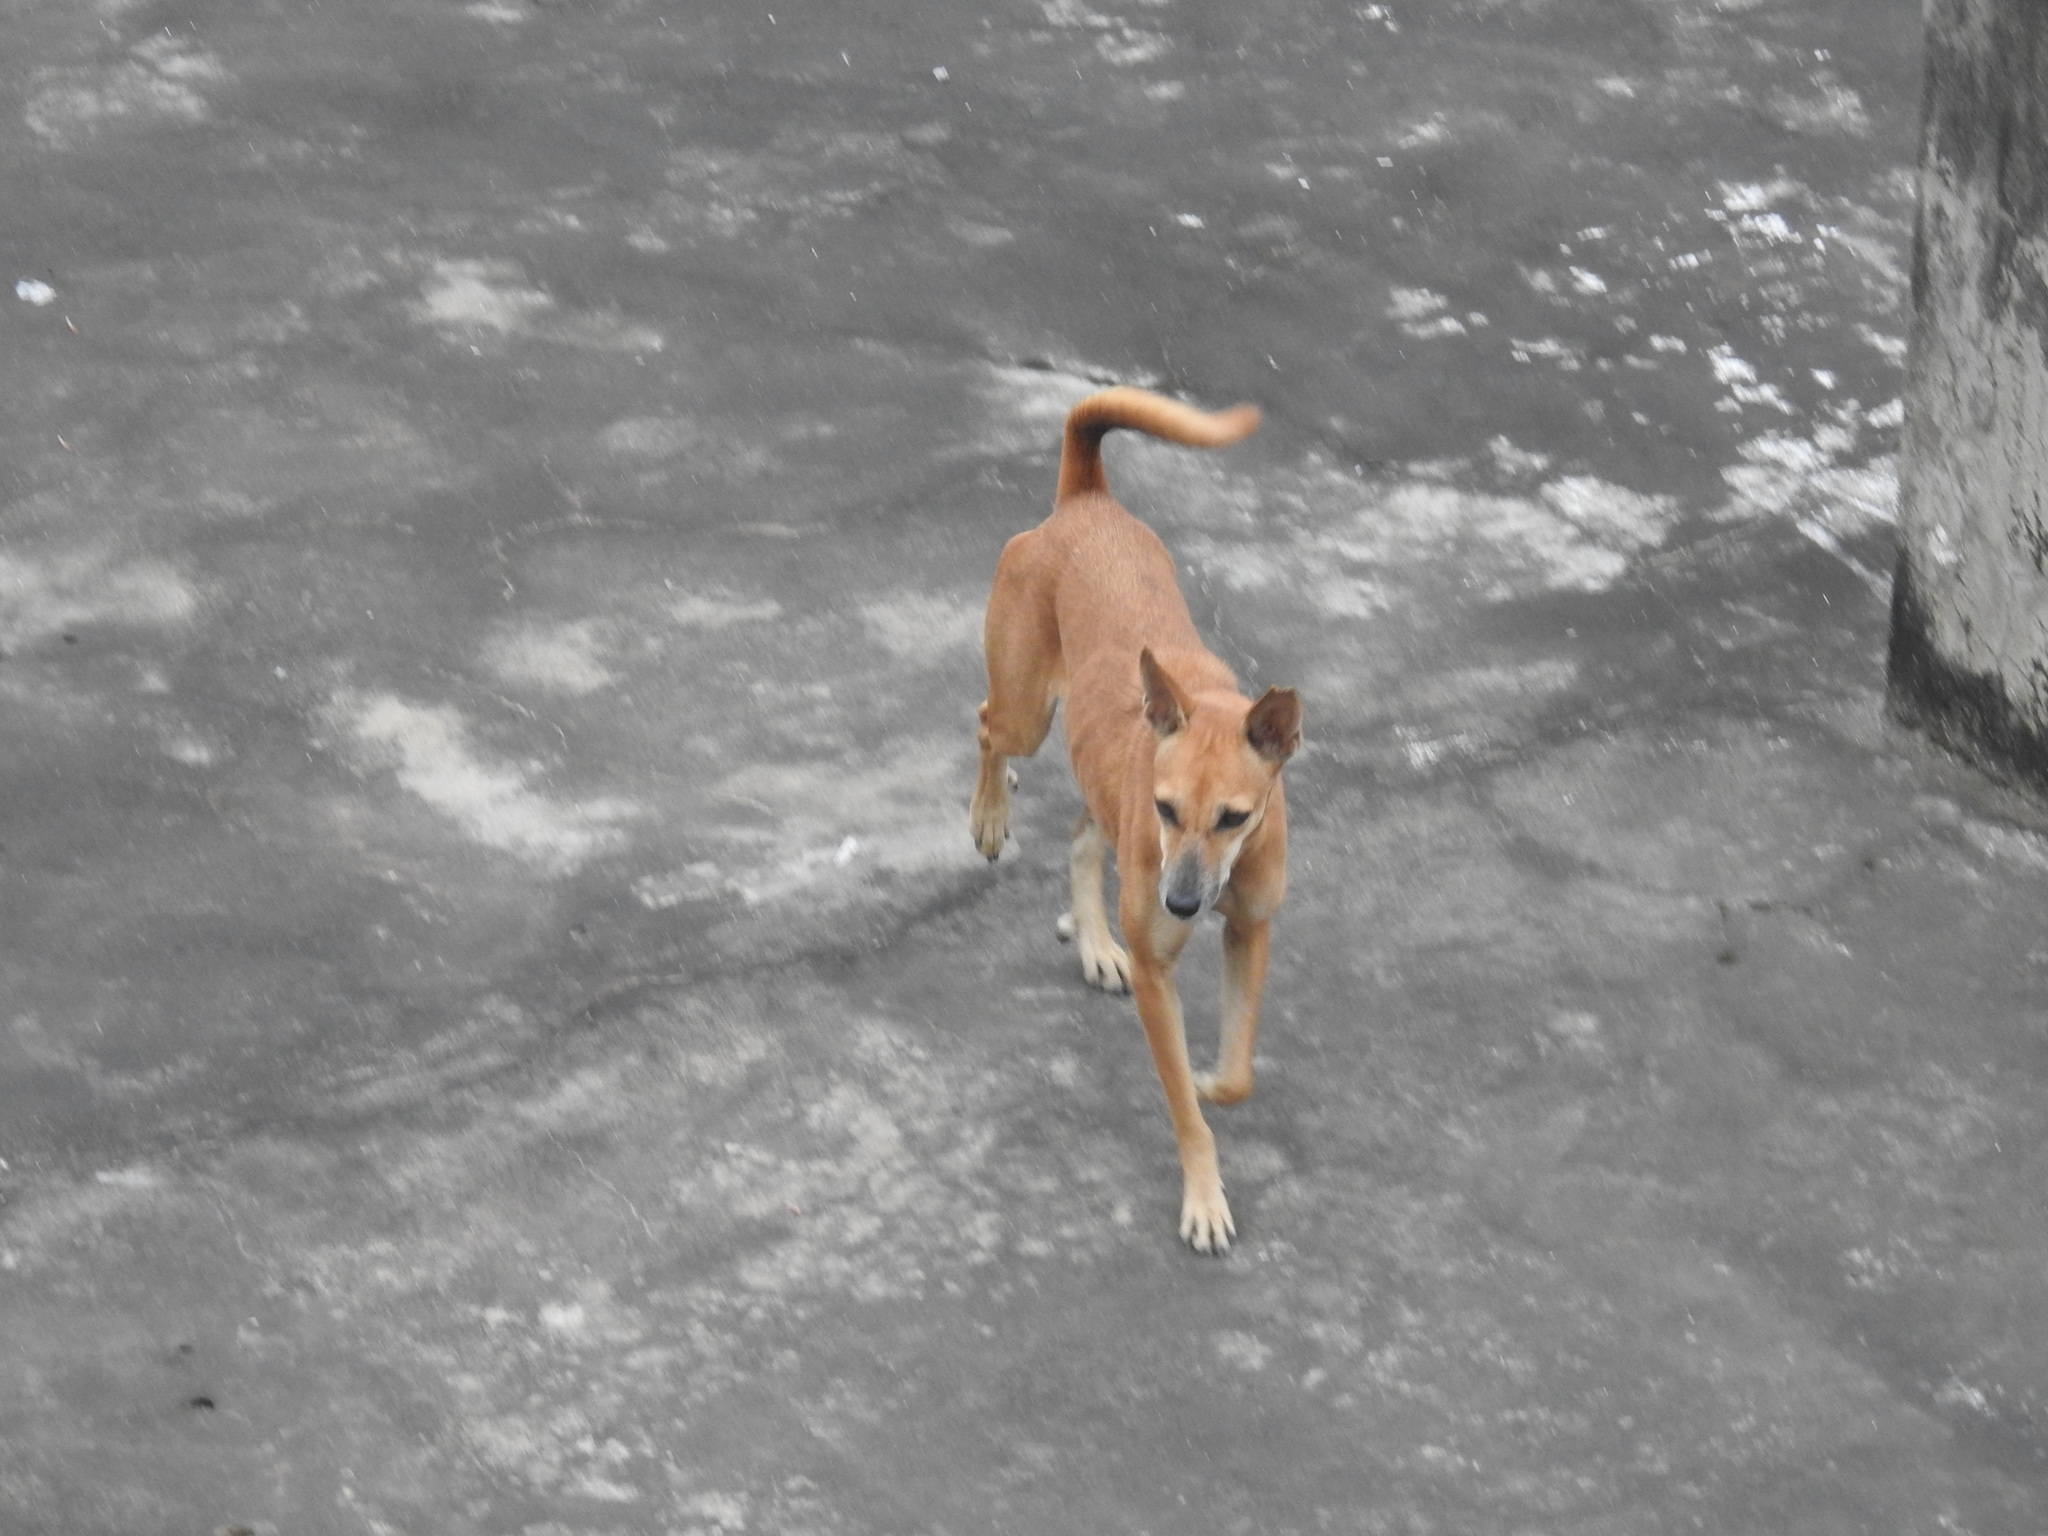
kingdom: Animalia
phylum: Chordata
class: Mammalia
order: Carnivora
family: Canidae
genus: Canis
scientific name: Canis lupus
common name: Gray wolf
